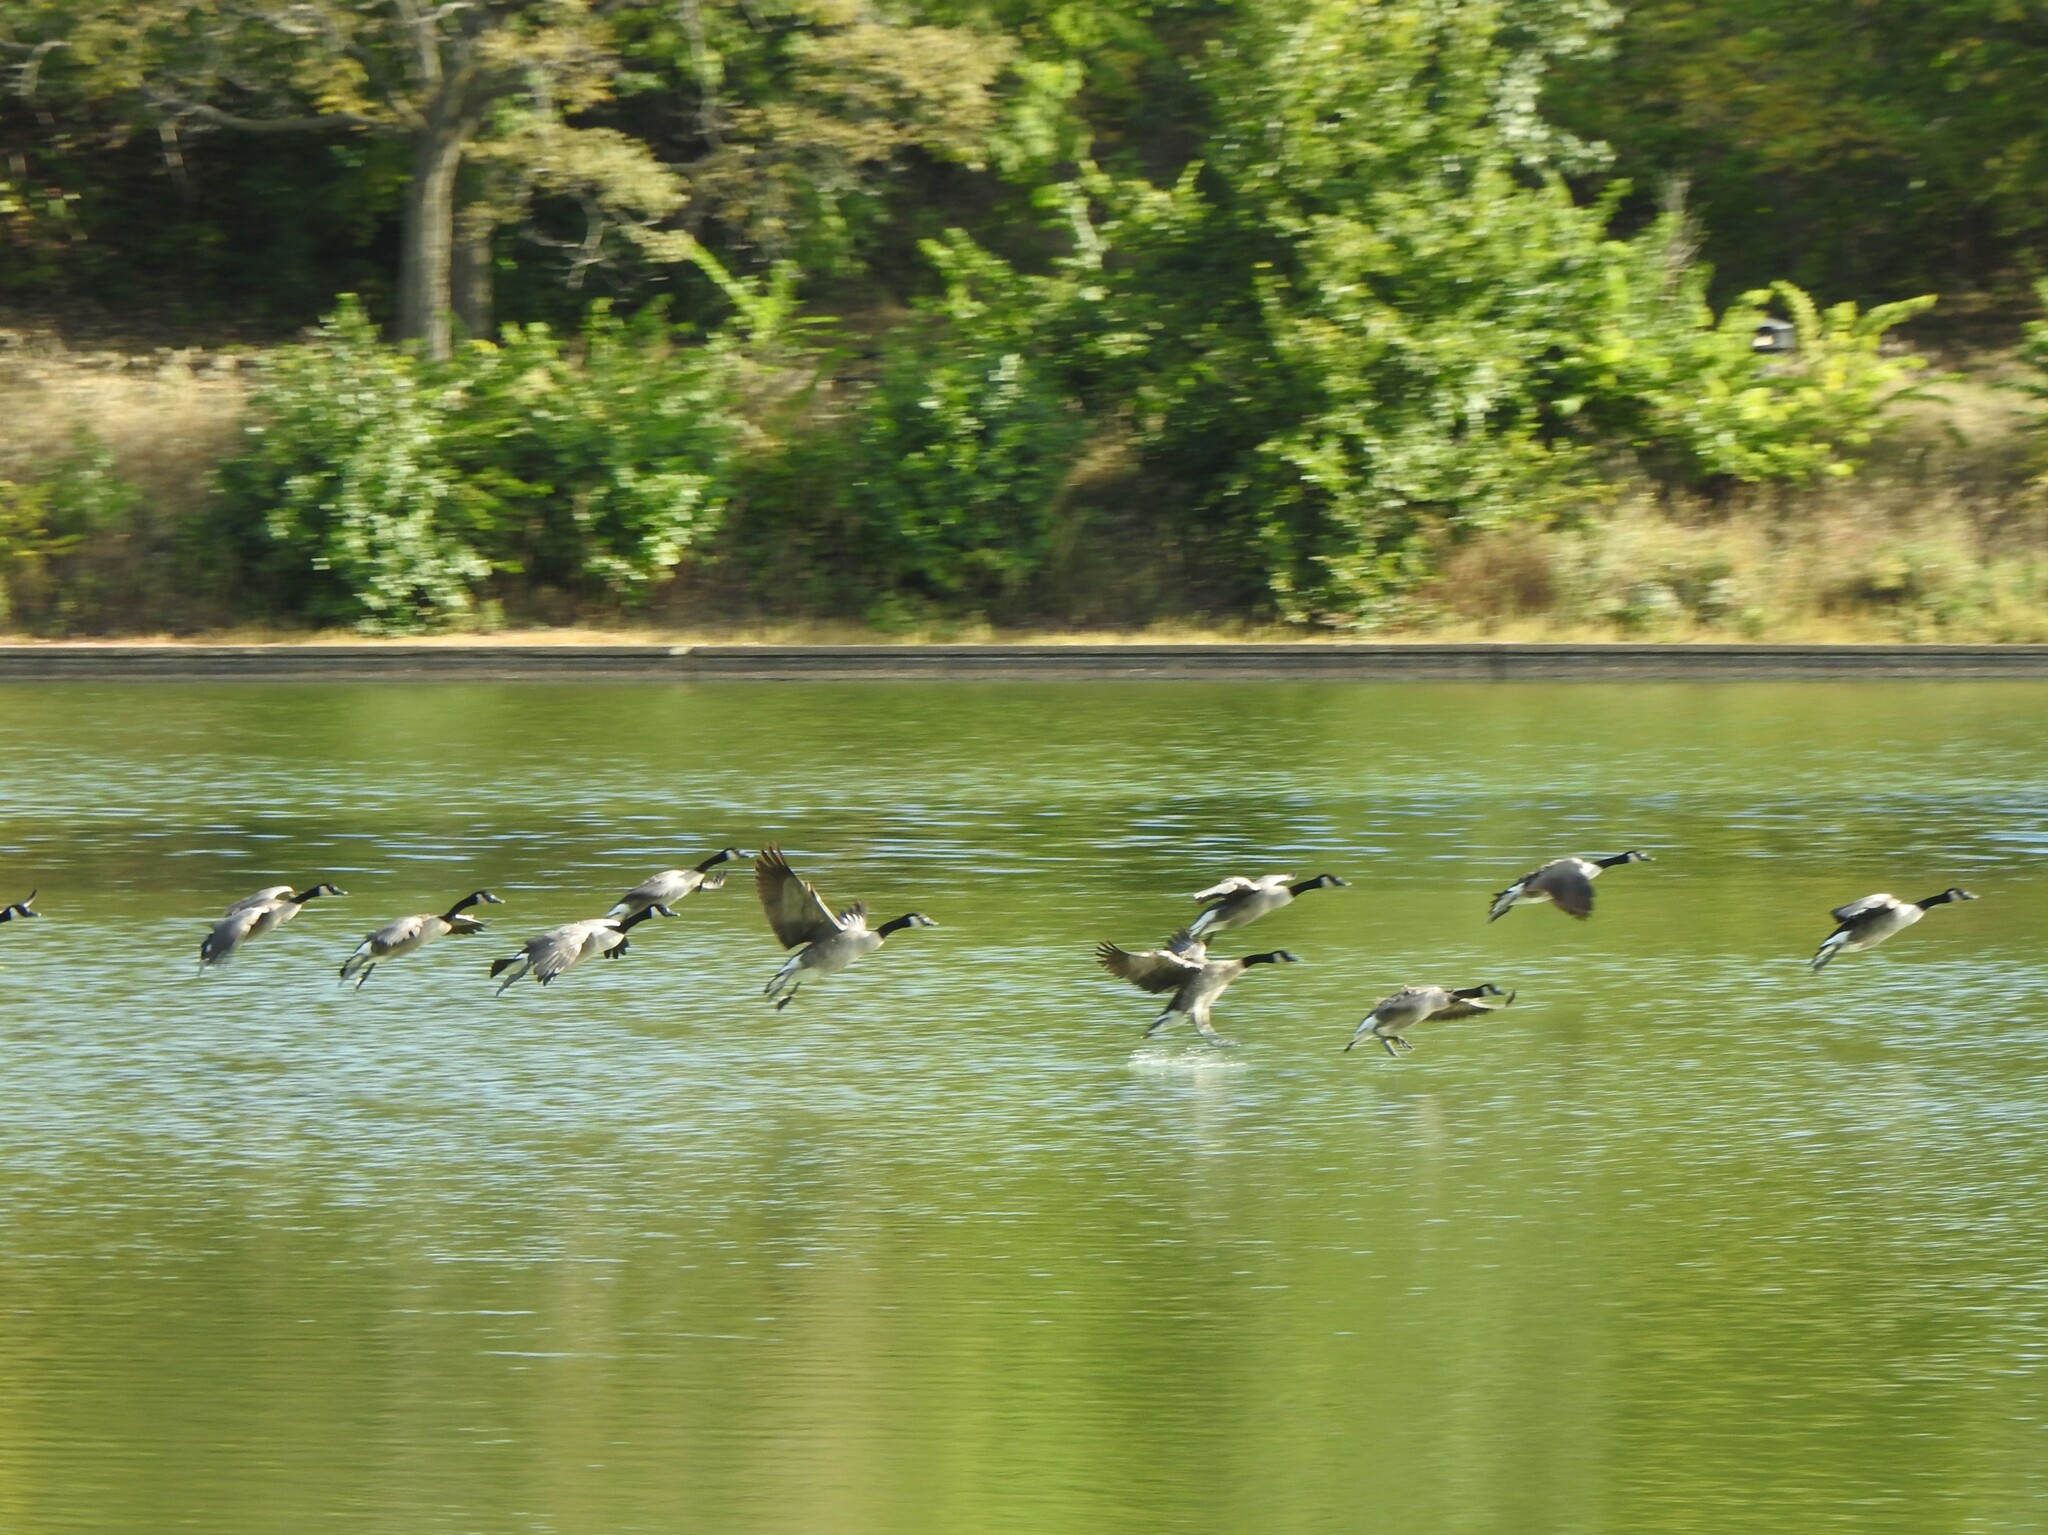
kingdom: Animalia
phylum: Chordata
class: Aves
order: Anseriformes
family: Anatidae
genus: Branta
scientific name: Branta canadensis
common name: Canada goose
